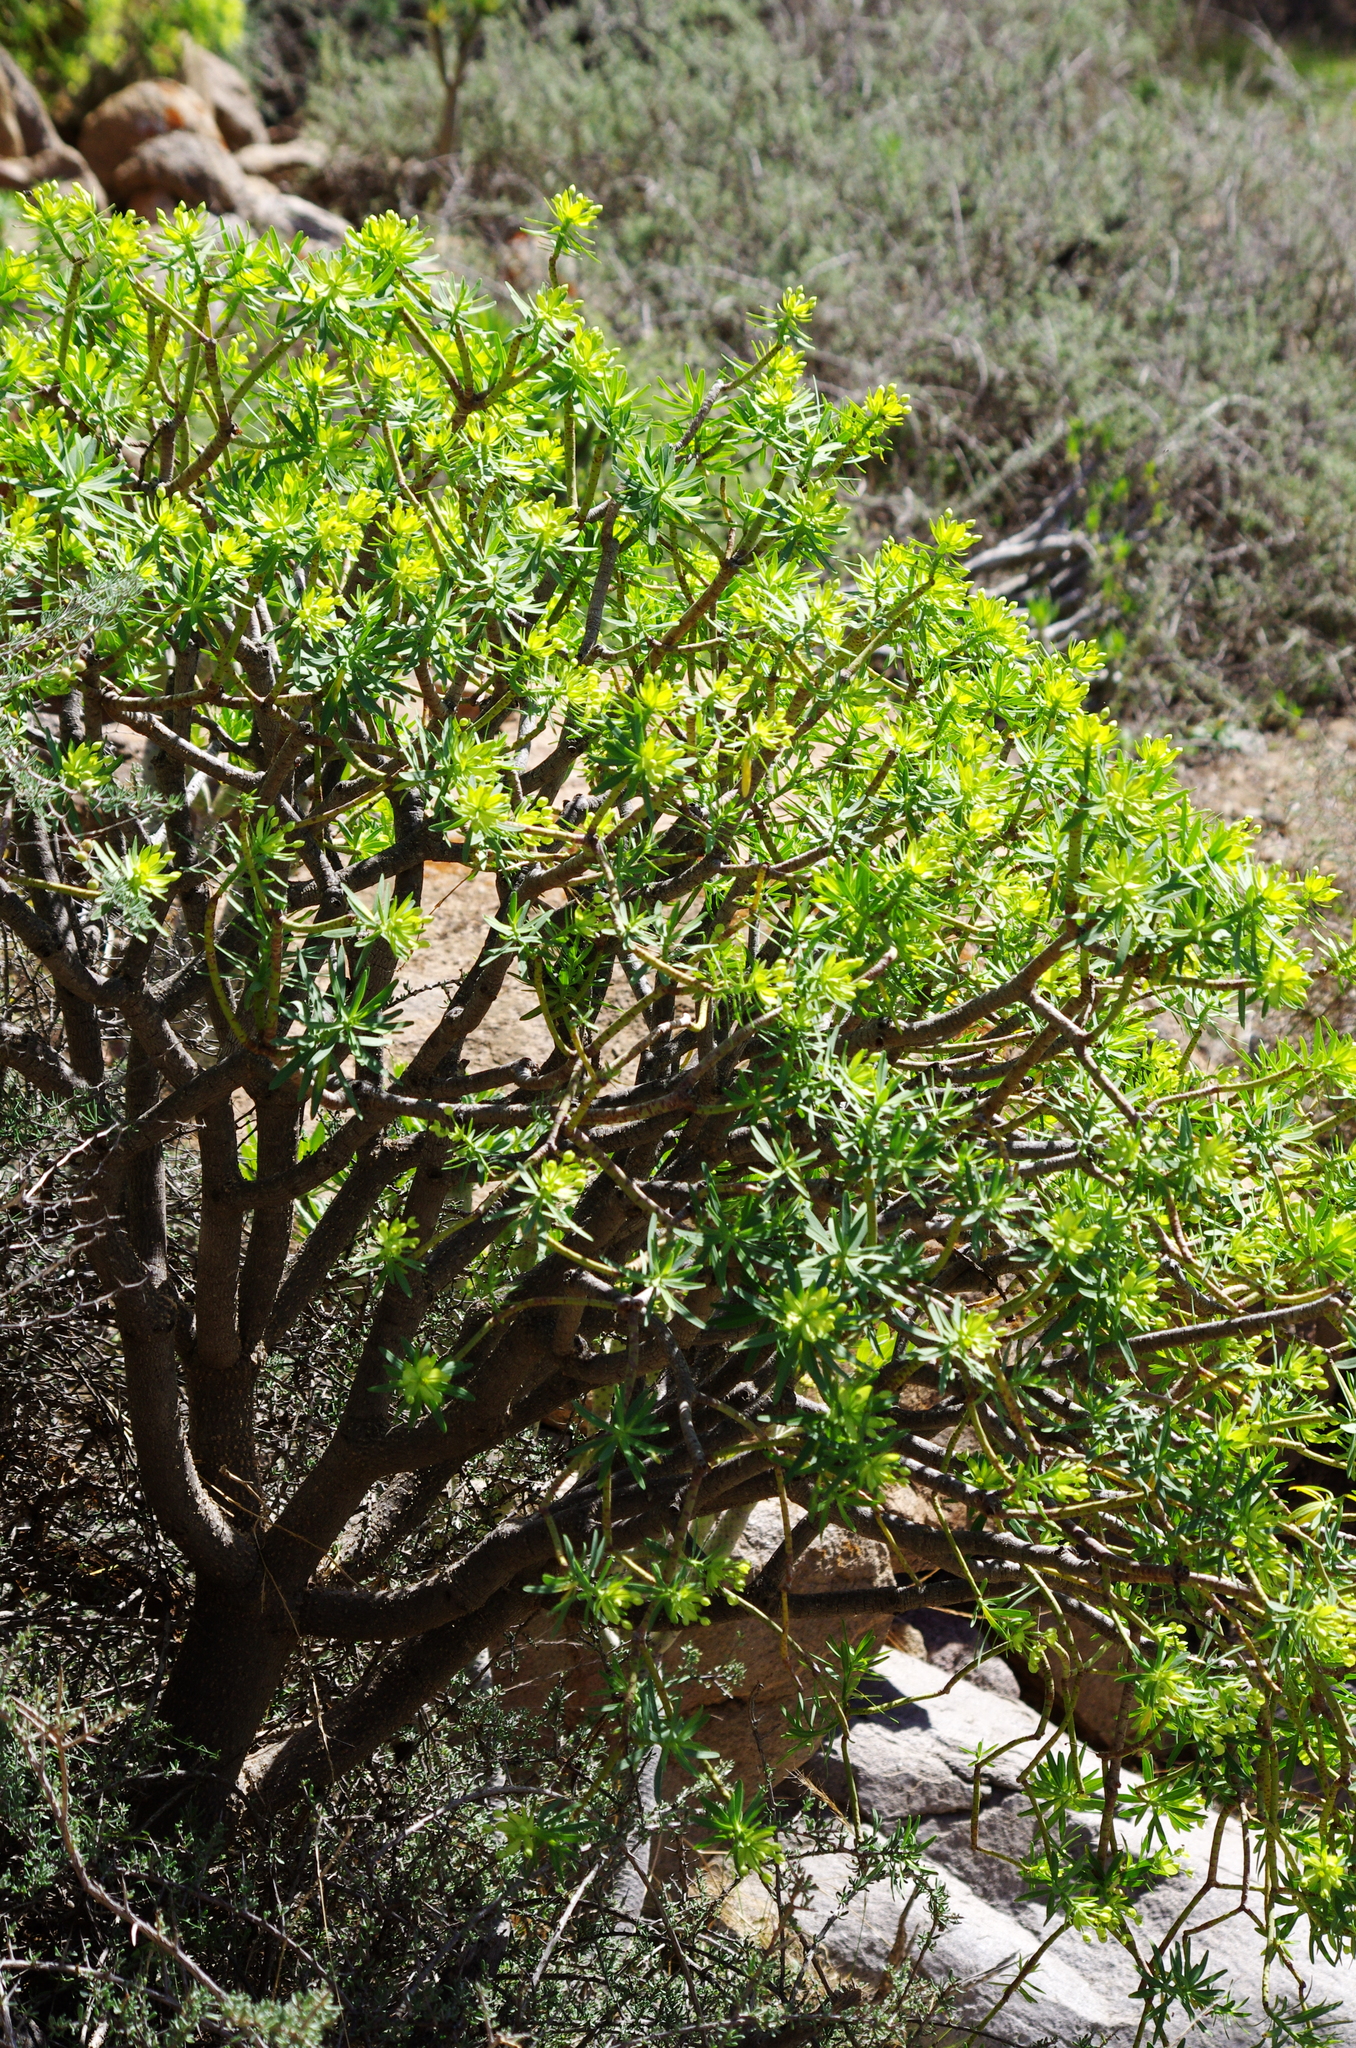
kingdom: Plantae
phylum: Tracheophyta
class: Magnoliopsida
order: Malpighiales
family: Euphorbiaceae
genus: Euphorbia
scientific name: Euphorbia regis-jubae
